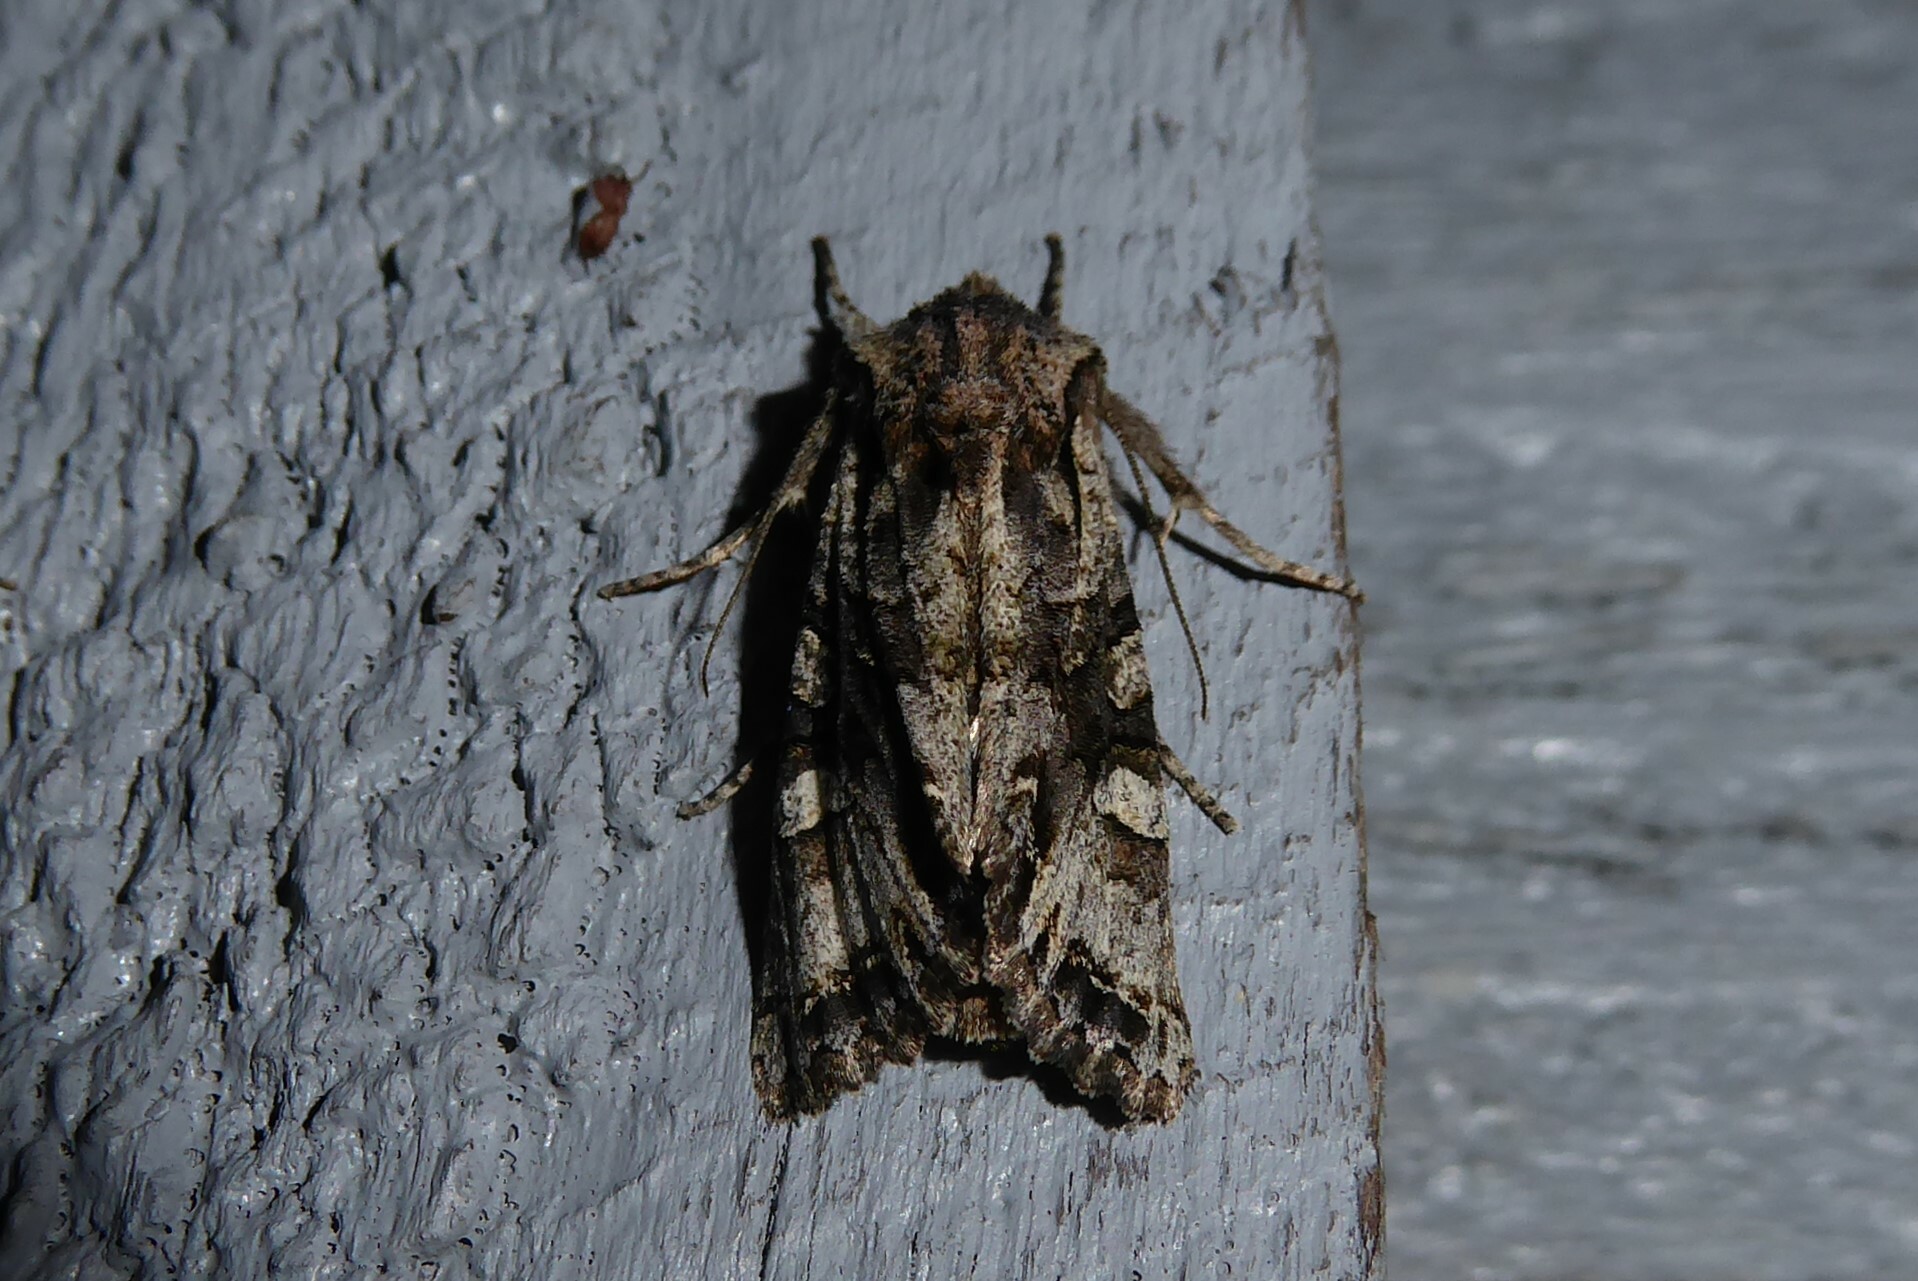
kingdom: Animalia
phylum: Arthropoda
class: Insecta
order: Lepidoptera
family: Noctuidae
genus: Ichneutica
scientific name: Ichneutica insignis
